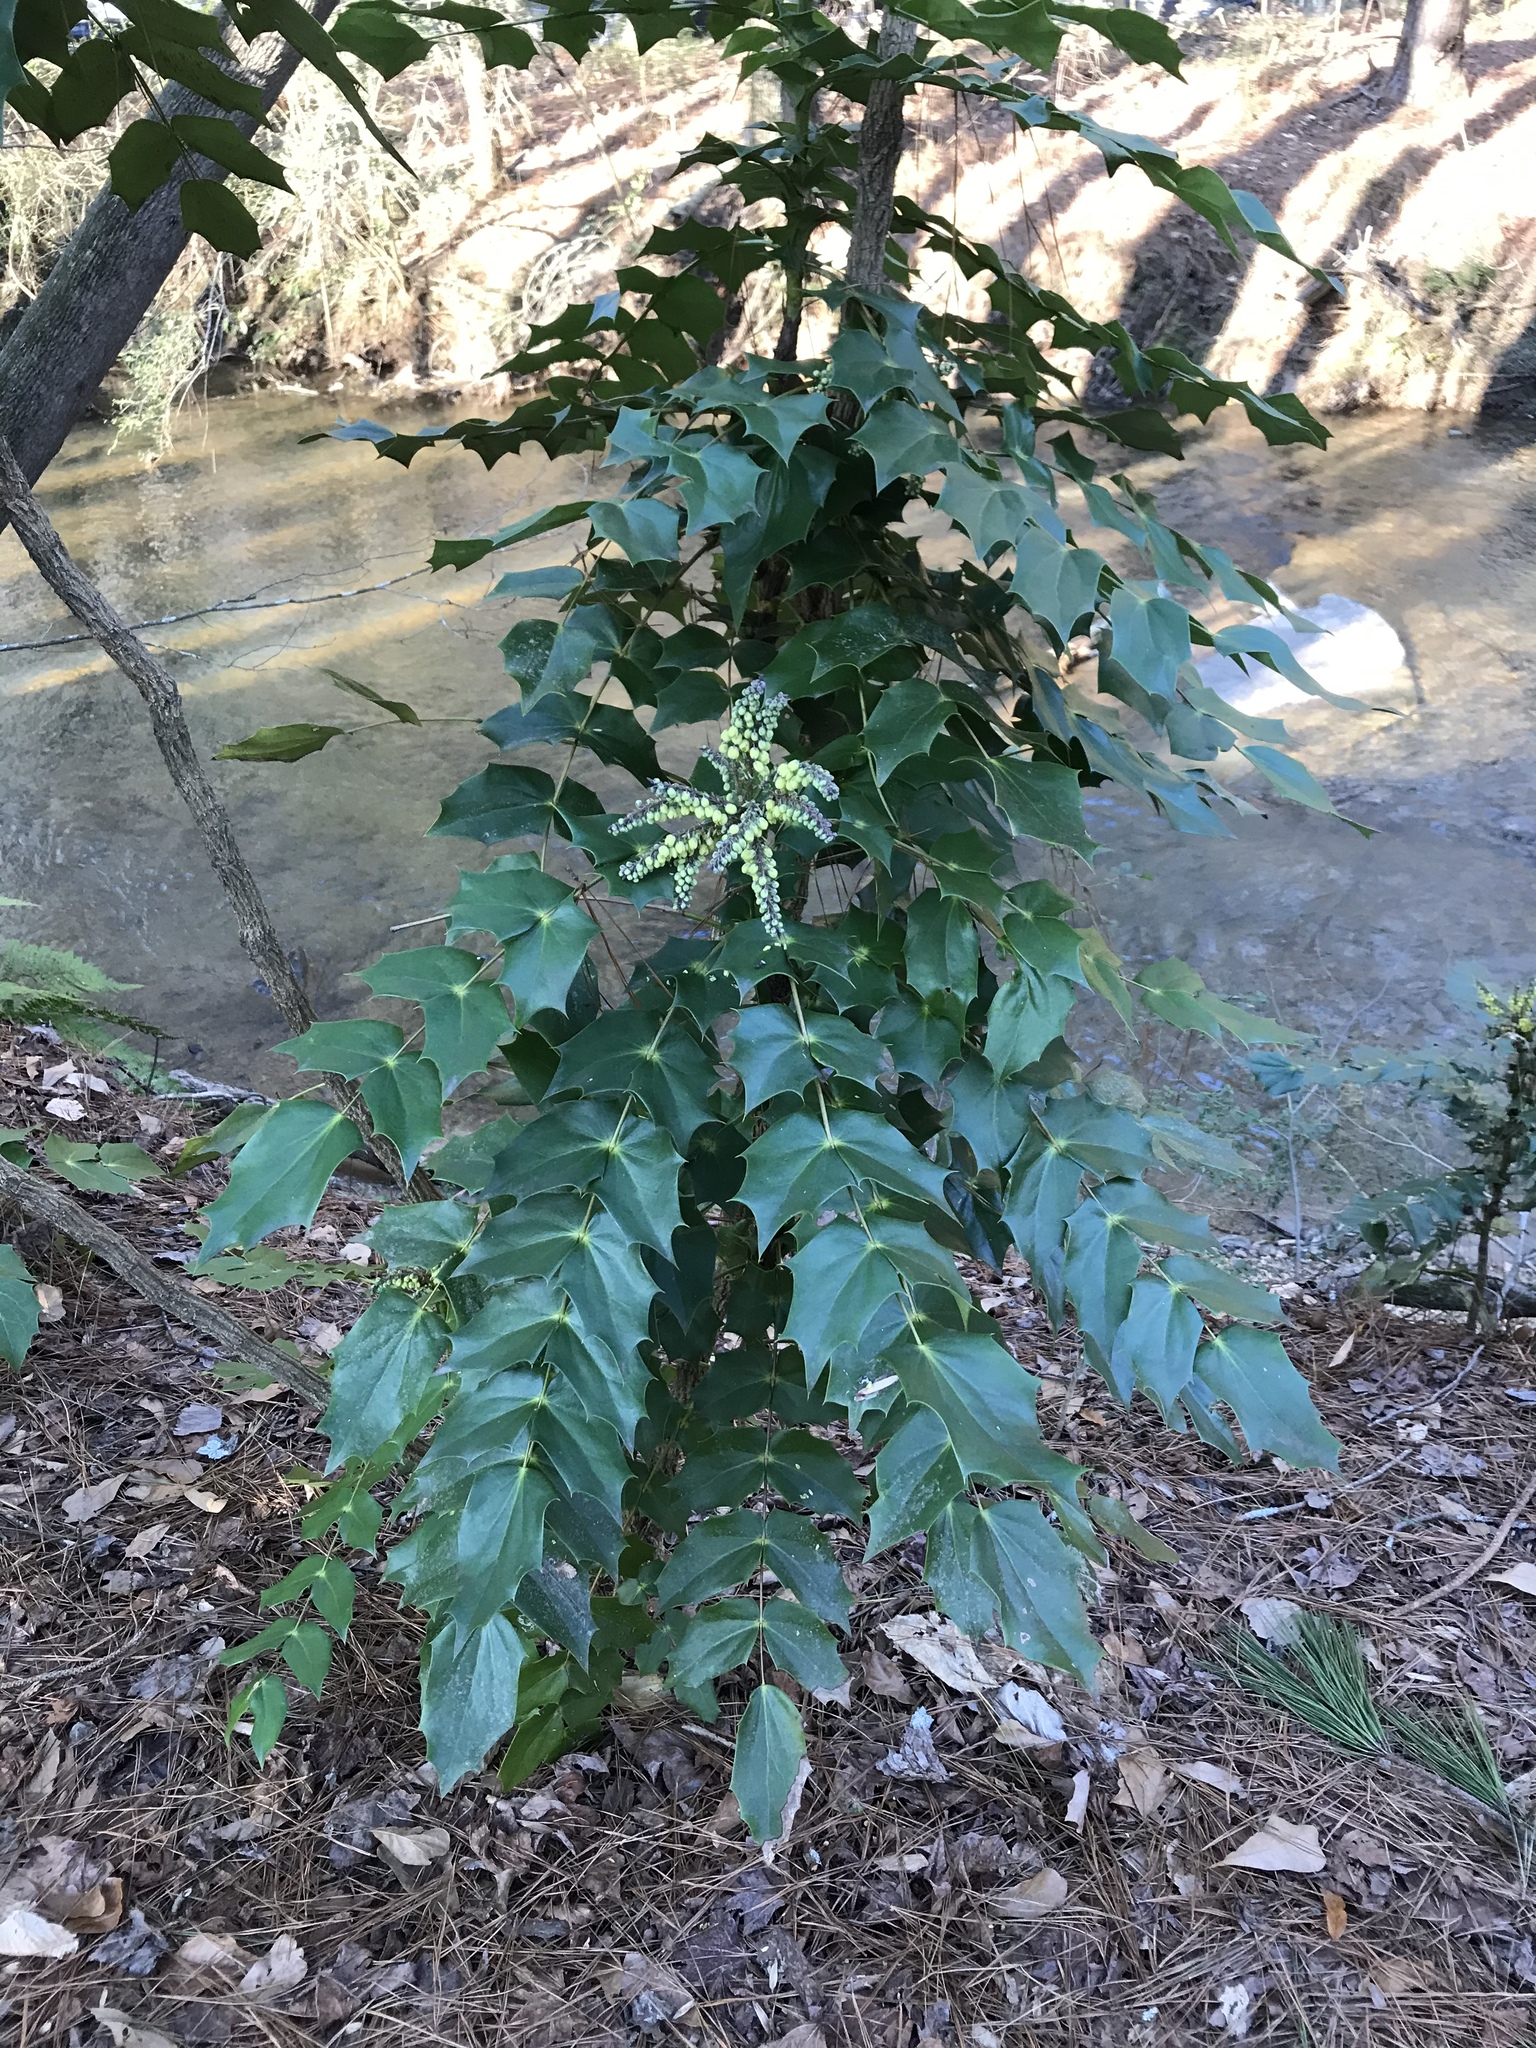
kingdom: Plantae
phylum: Tracheophyta
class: Magnoliopsida
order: Ranunculales
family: Berberidaceae
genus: Mahonia
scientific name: Mahonia bealei
